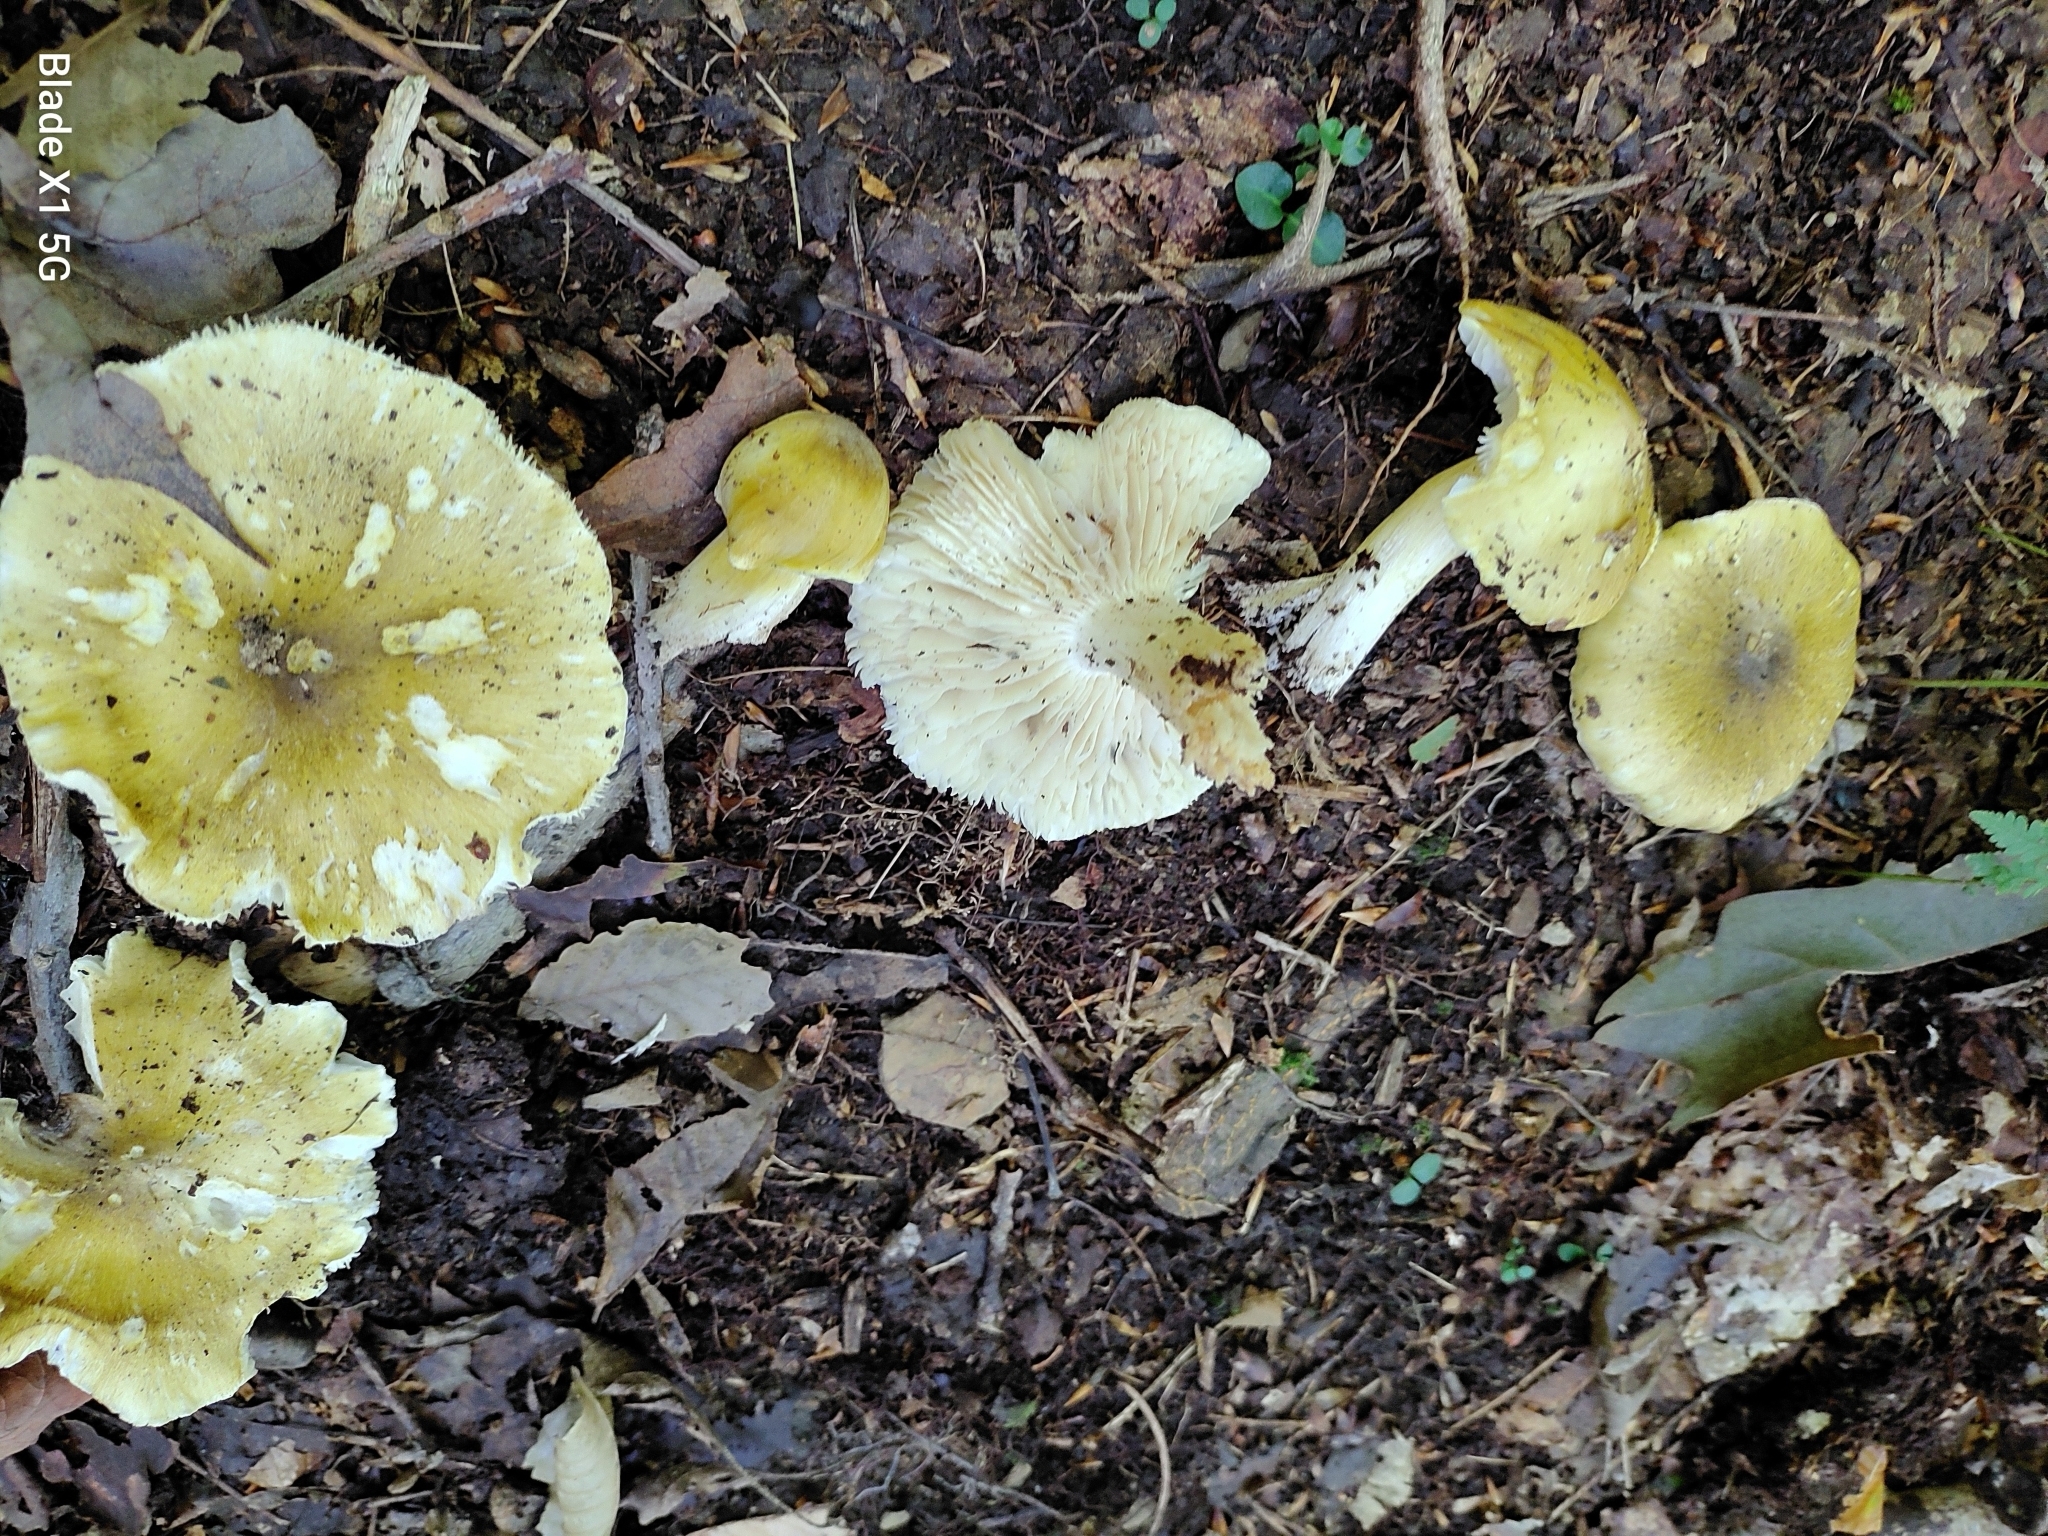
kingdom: Fungi
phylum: Basidiomycota
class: Agaricomycetes
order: Agaricales
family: Tricholomataceae
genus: Tricholoma
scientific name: Tricholoma subsejunctum
